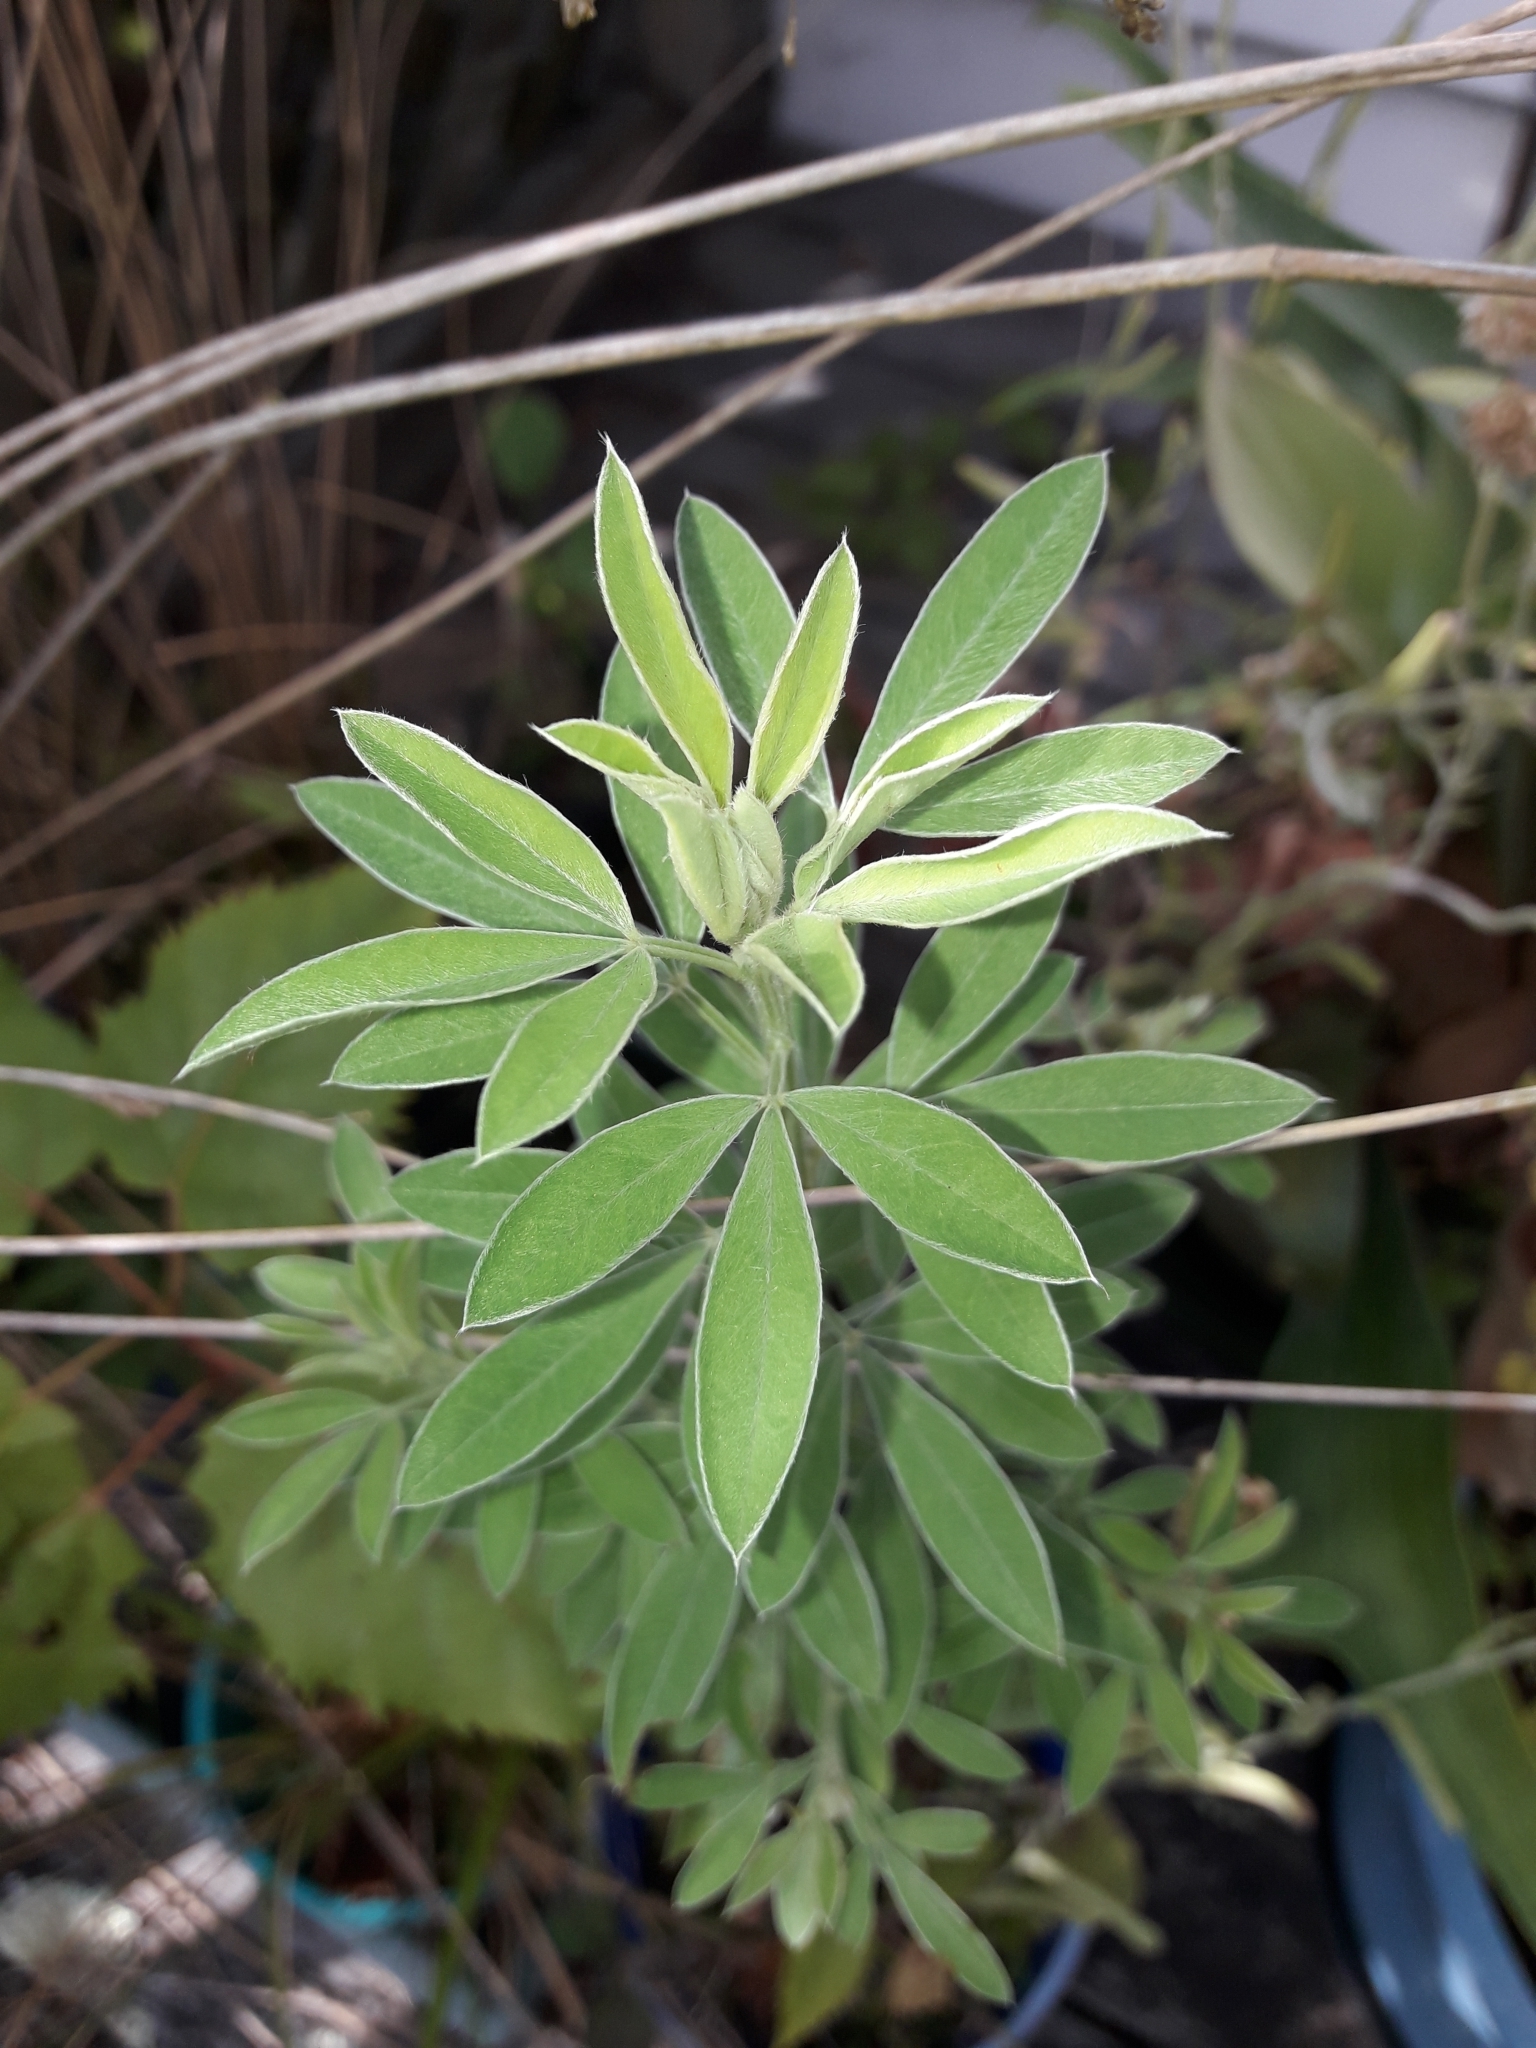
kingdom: Plantae
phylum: Tracheophyta
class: Magnoliopsida
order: Fabales
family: Fabaceae
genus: Chamaecytisus
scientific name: Chamaecytisus prolifer
